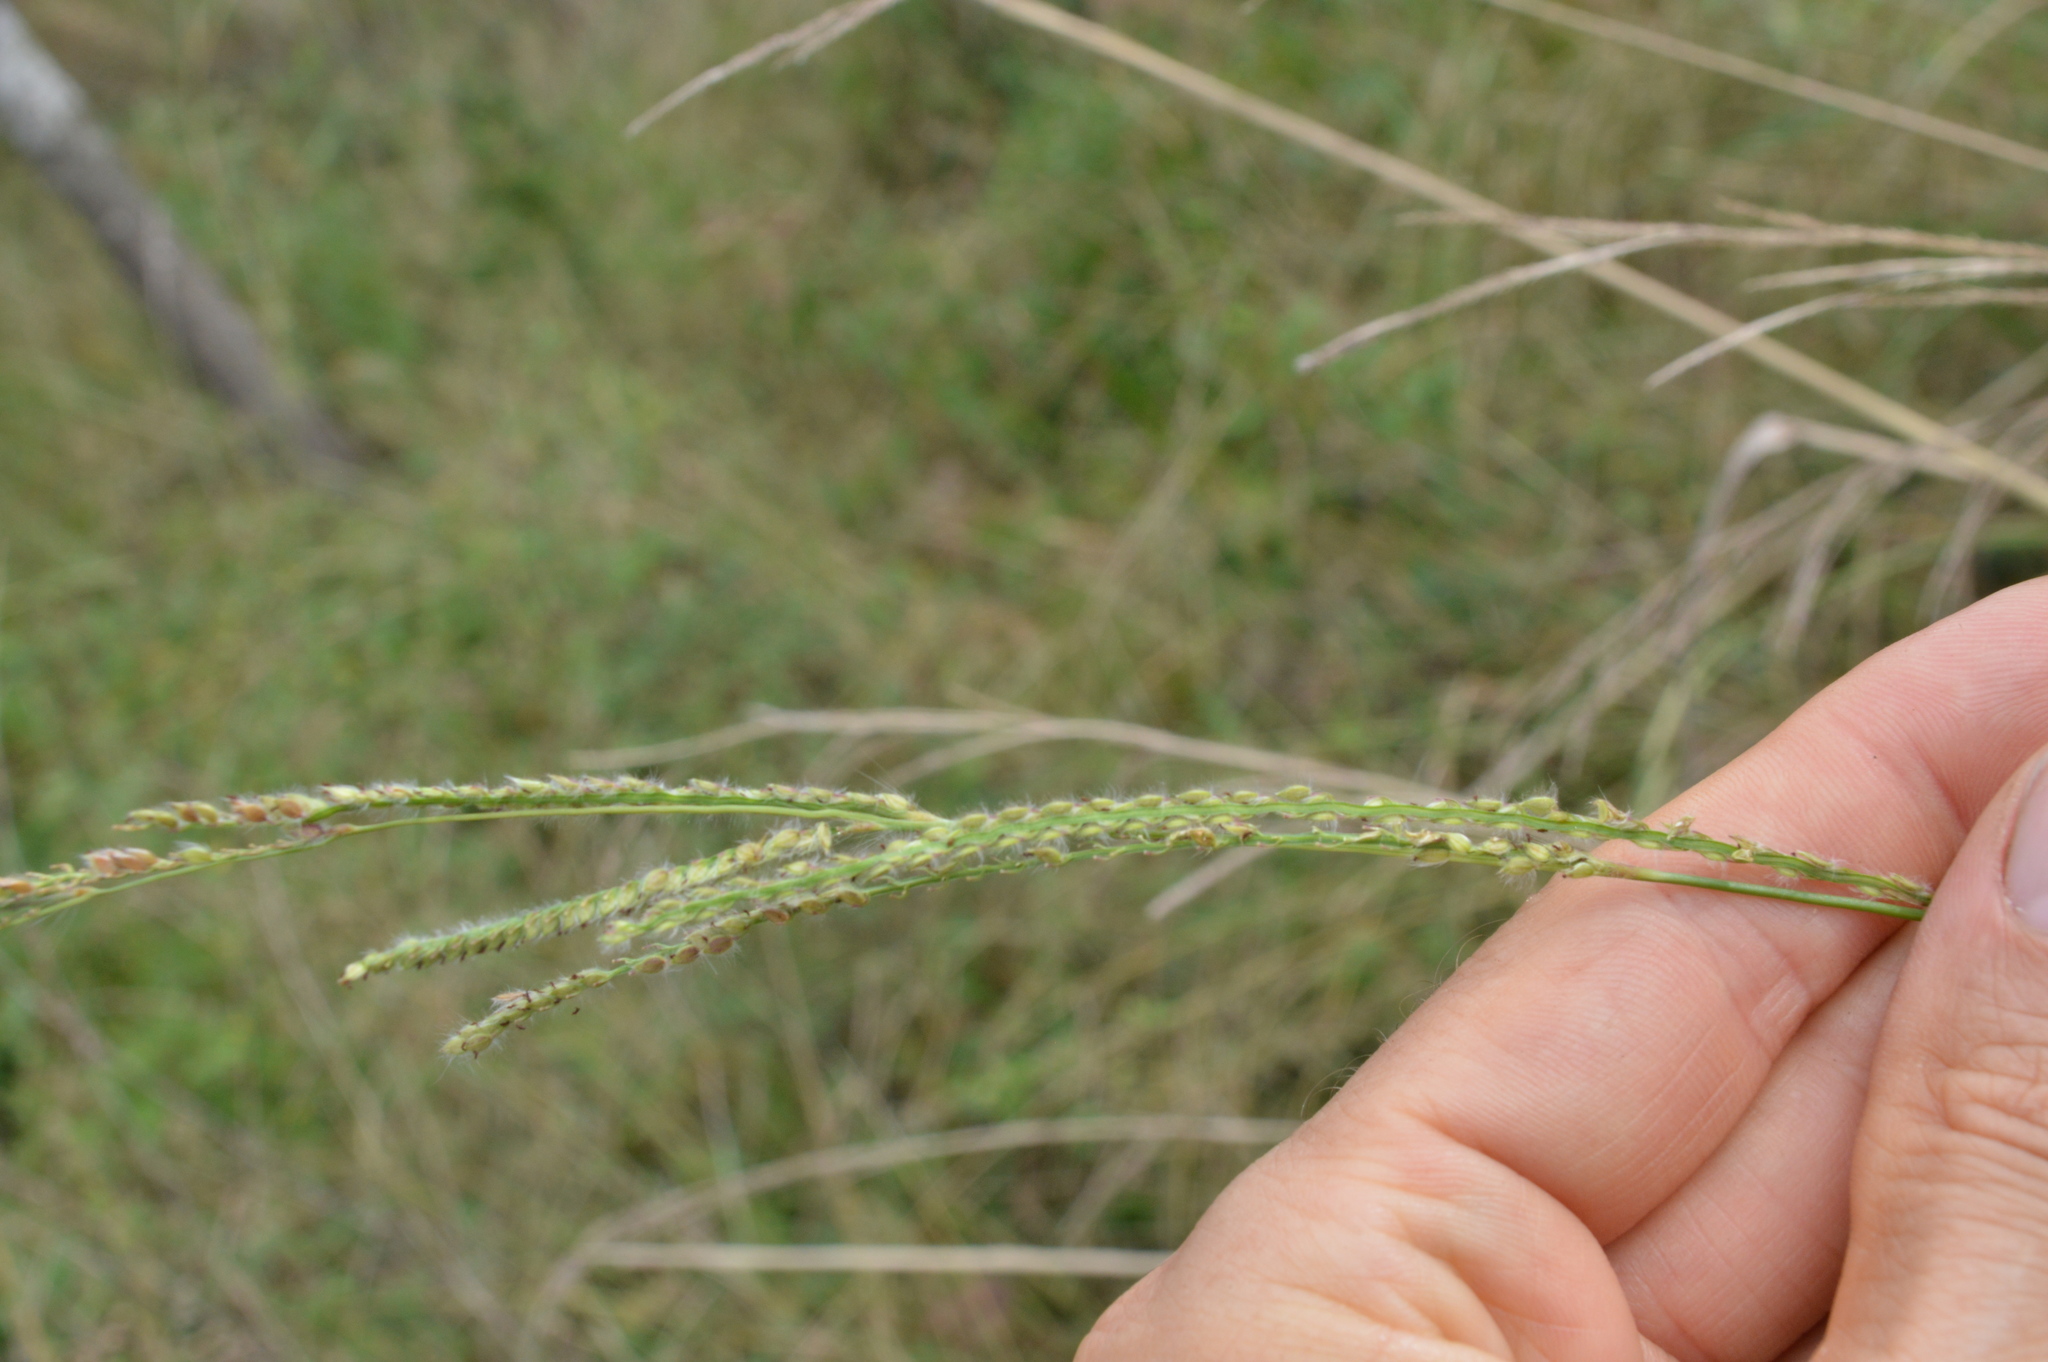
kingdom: Plantae
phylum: Tracheophyta
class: Liliopsida
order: Poales
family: Poaceae
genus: Paspalum
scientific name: Paspalum urvillei
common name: Vasey's grass
